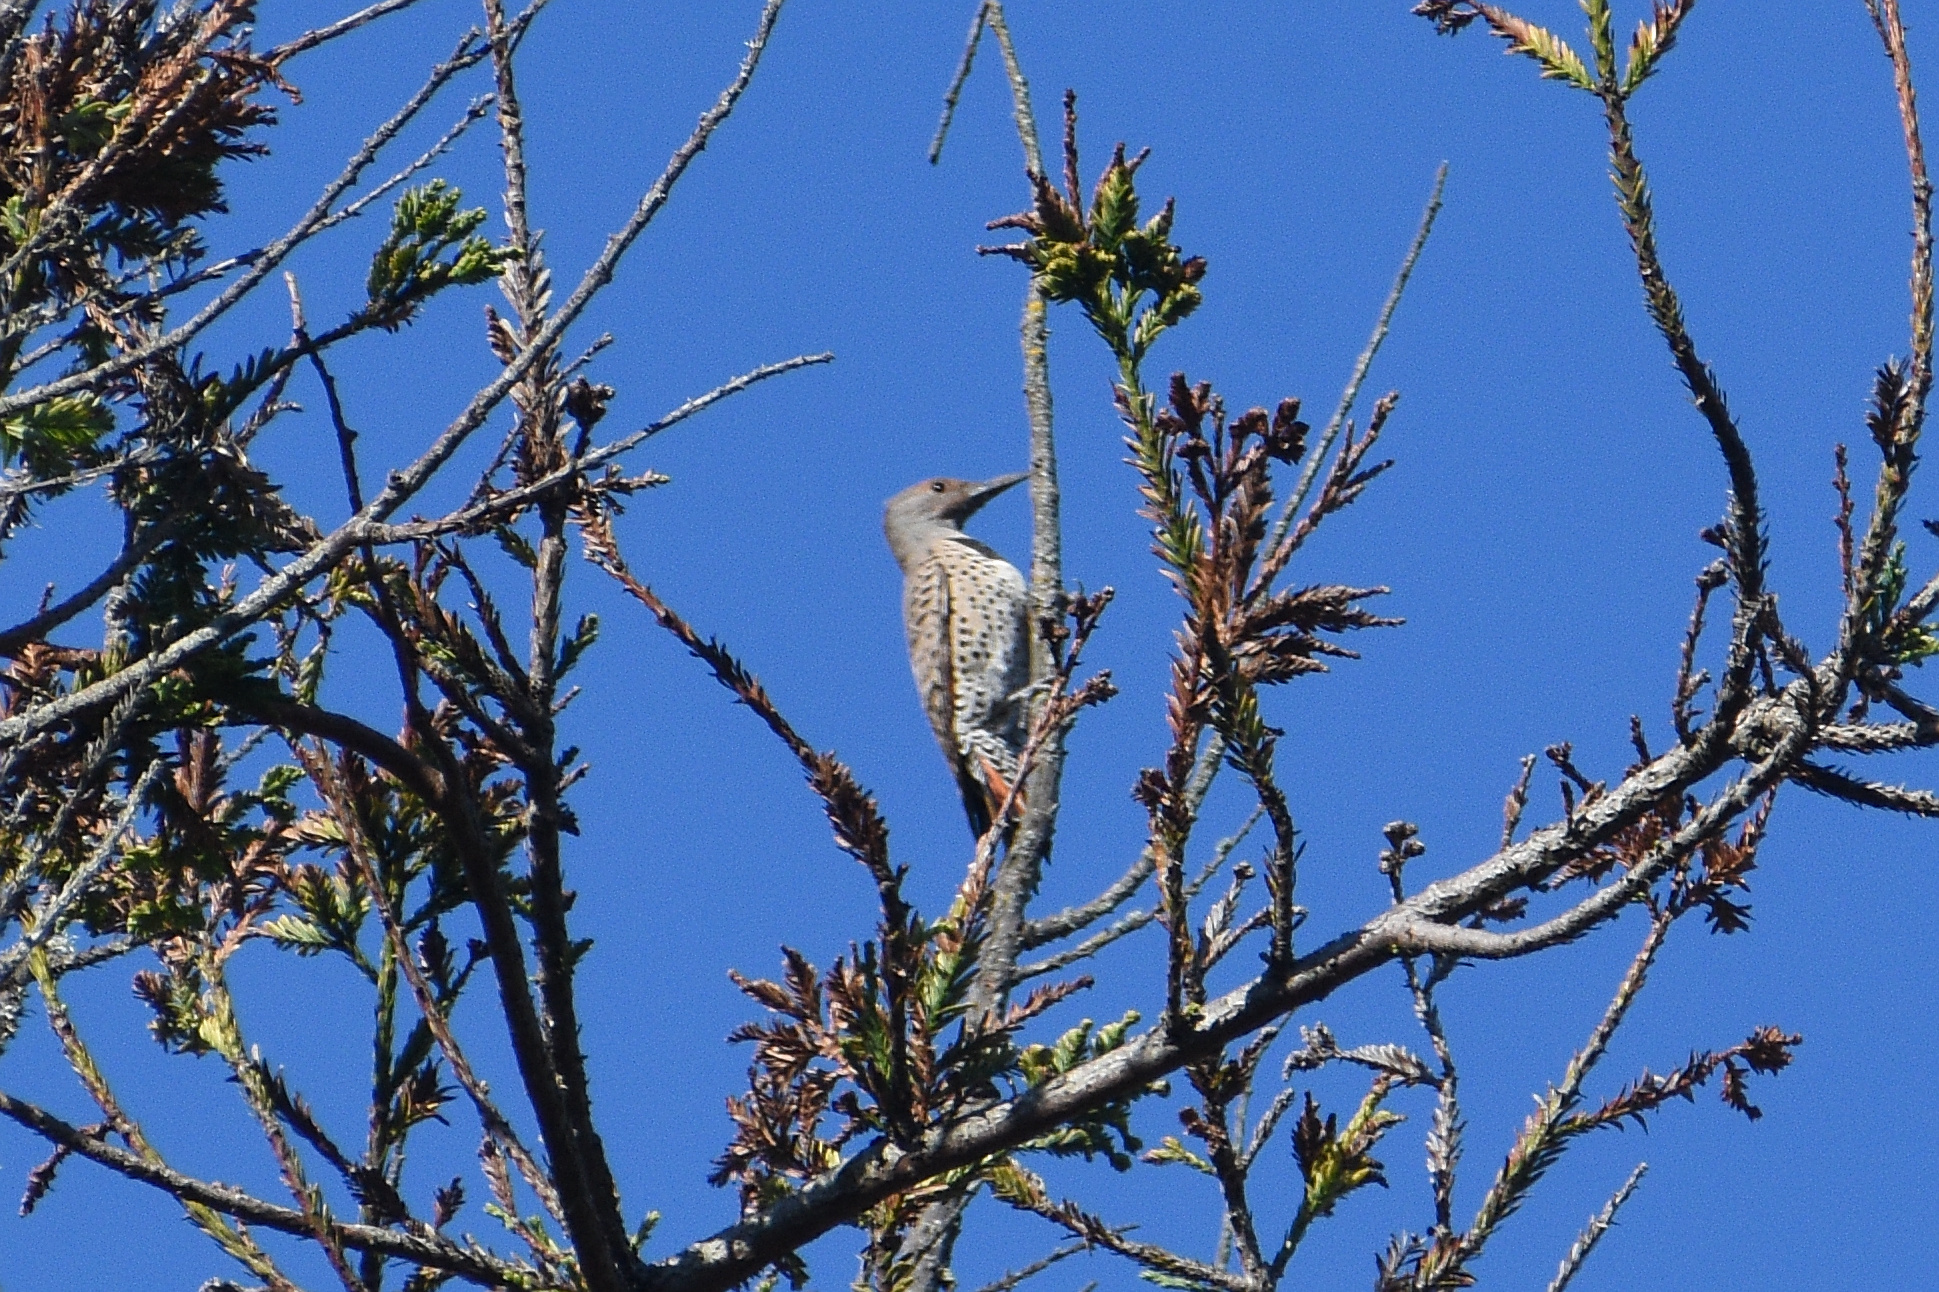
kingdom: Animalia
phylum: Chordata
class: Aves
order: Piciformes
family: Picidae
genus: Colaptes
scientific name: Colaptes auratus
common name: Northern flicker
